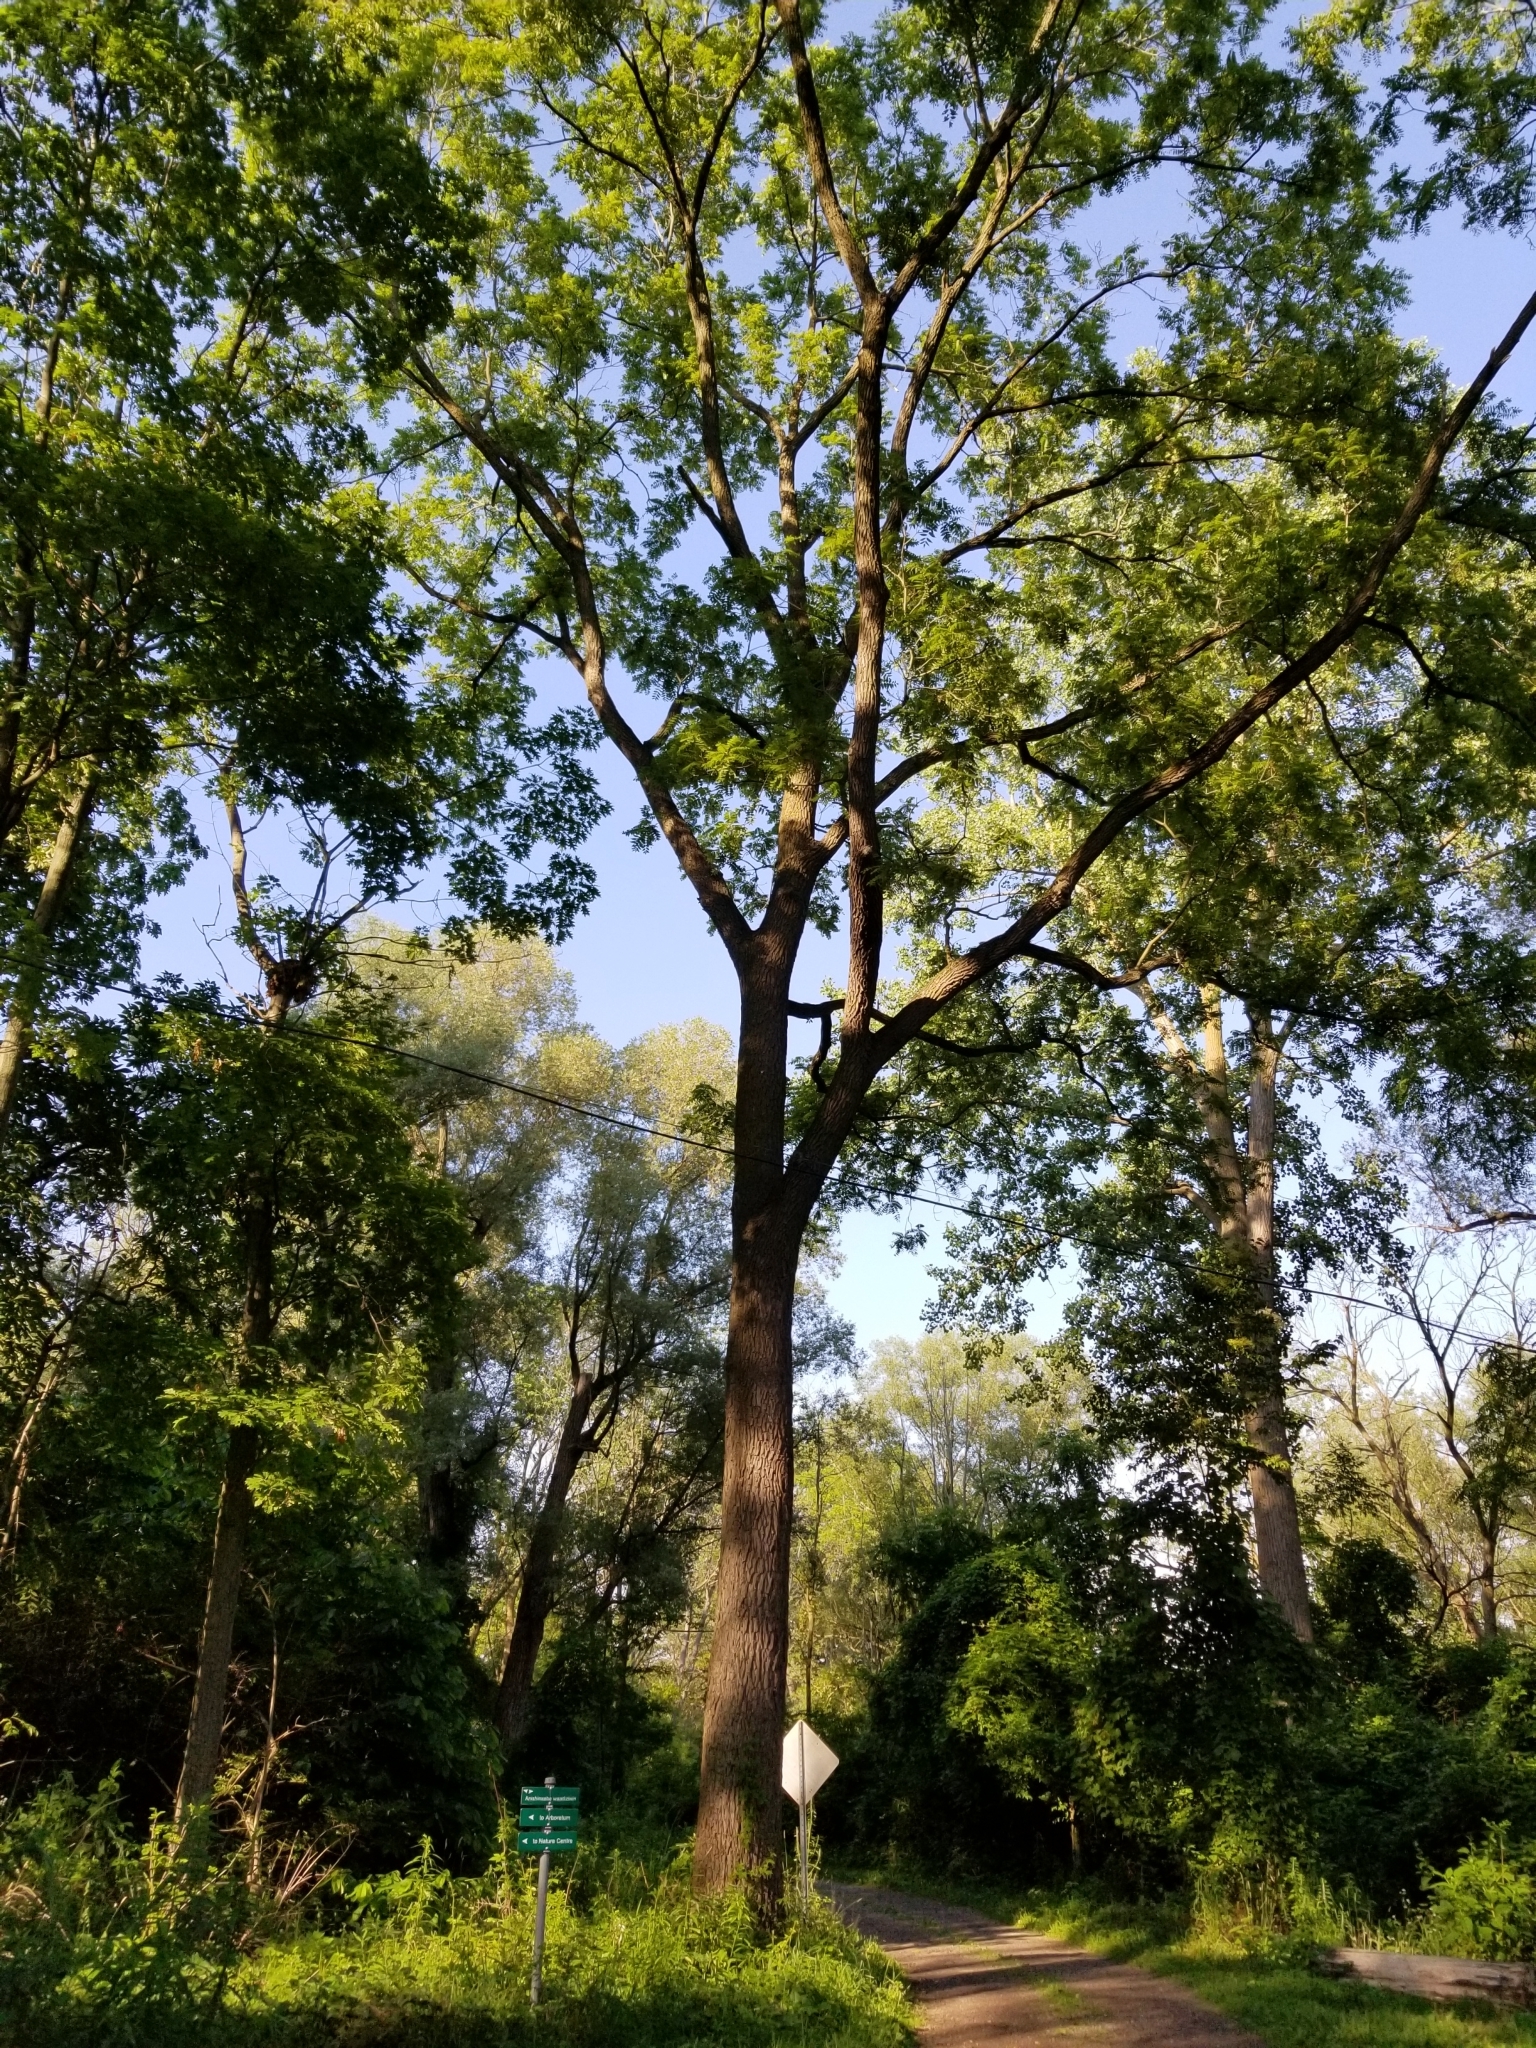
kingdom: Plantae
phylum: Tracheophyta
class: Magnoliopsida
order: Fagales
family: Juglandaceae
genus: Juglans
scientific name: Juglans nigra
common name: Black walnut
